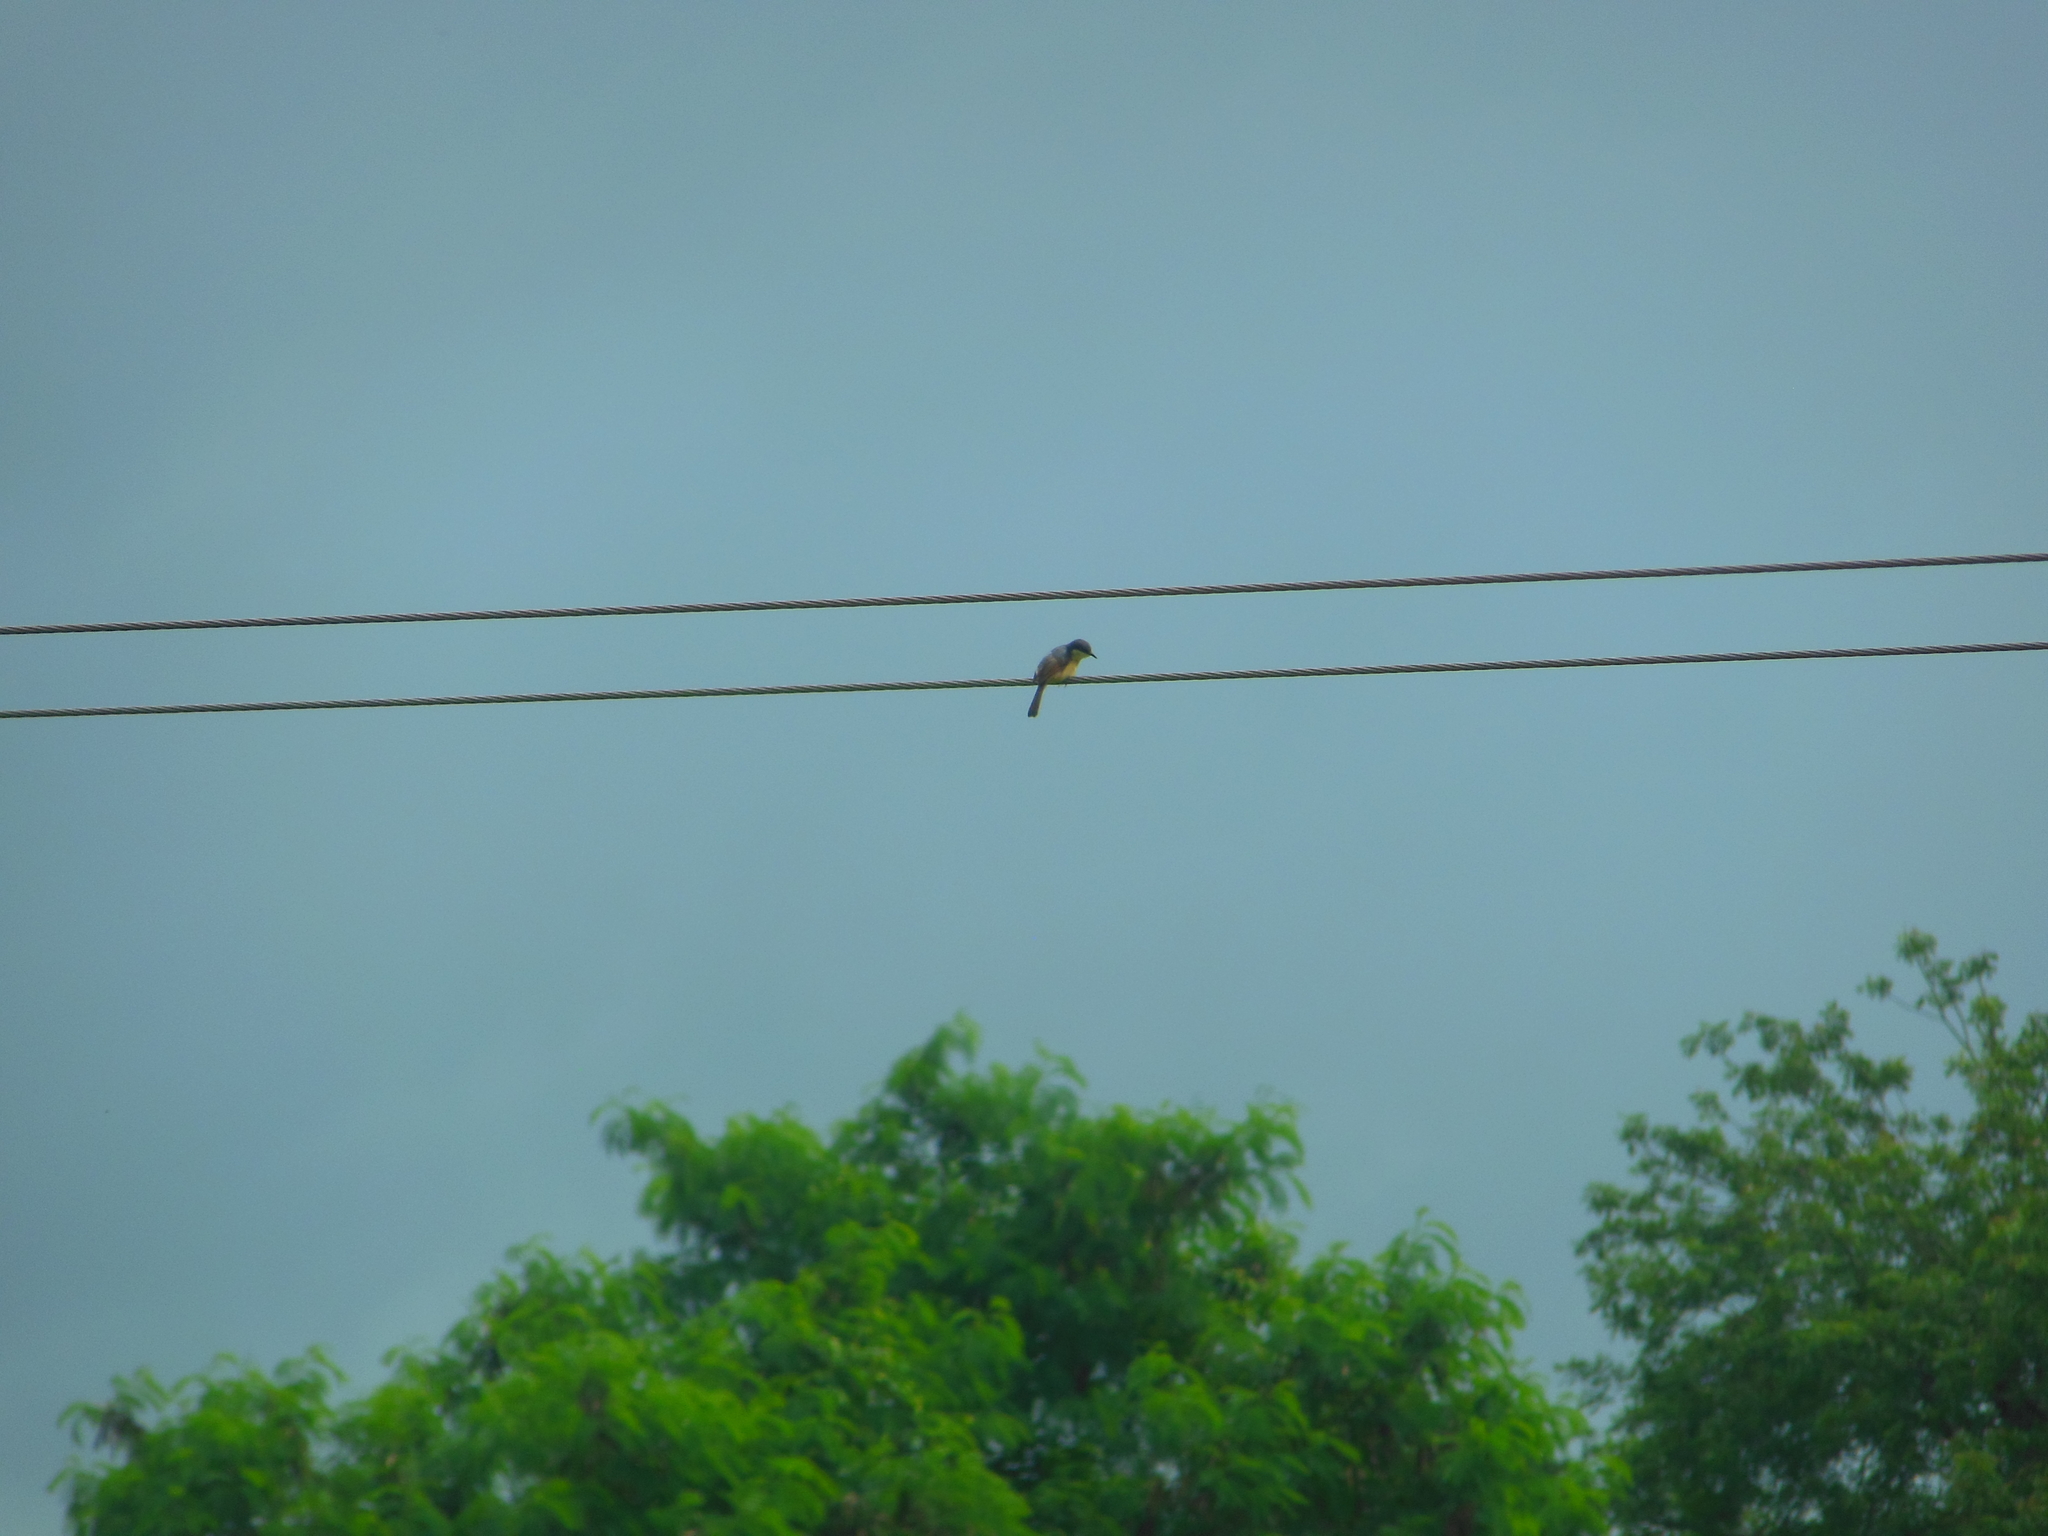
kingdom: Animalia
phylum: Chordata
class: Aves
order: Passeriformes
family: Cisticolidae
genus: Prinia
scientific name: Prinia socialis
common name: Ashy prinia
